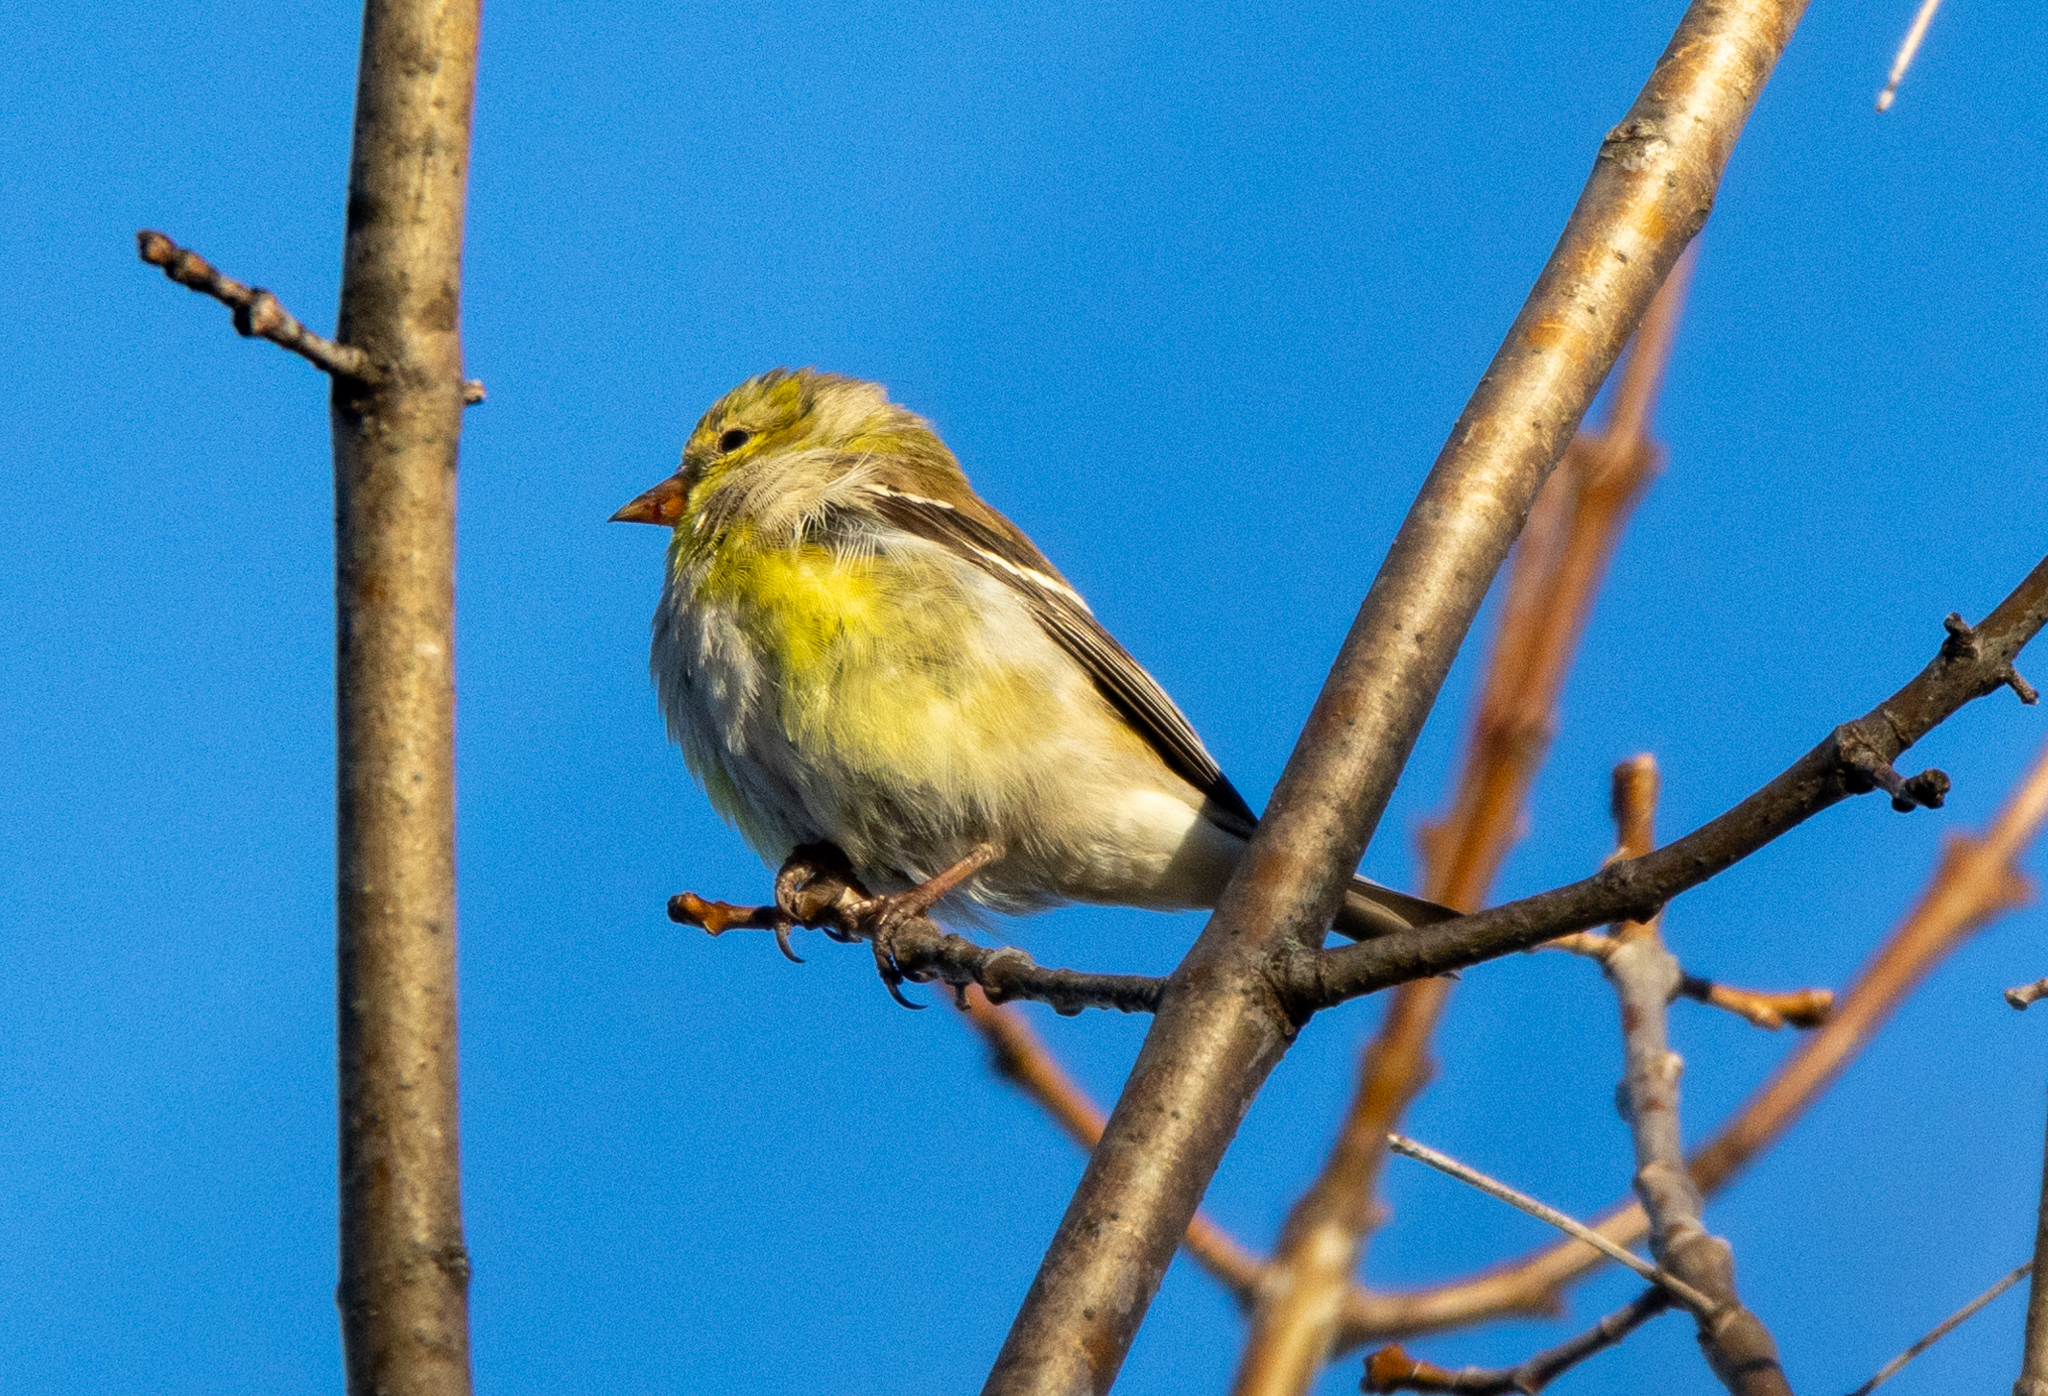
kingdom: Animalia
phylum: Chordata
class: Aves
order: Passeriformes
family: Fringillidae
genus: Spinus
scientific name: Spinus tristis
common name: American goldfinch
